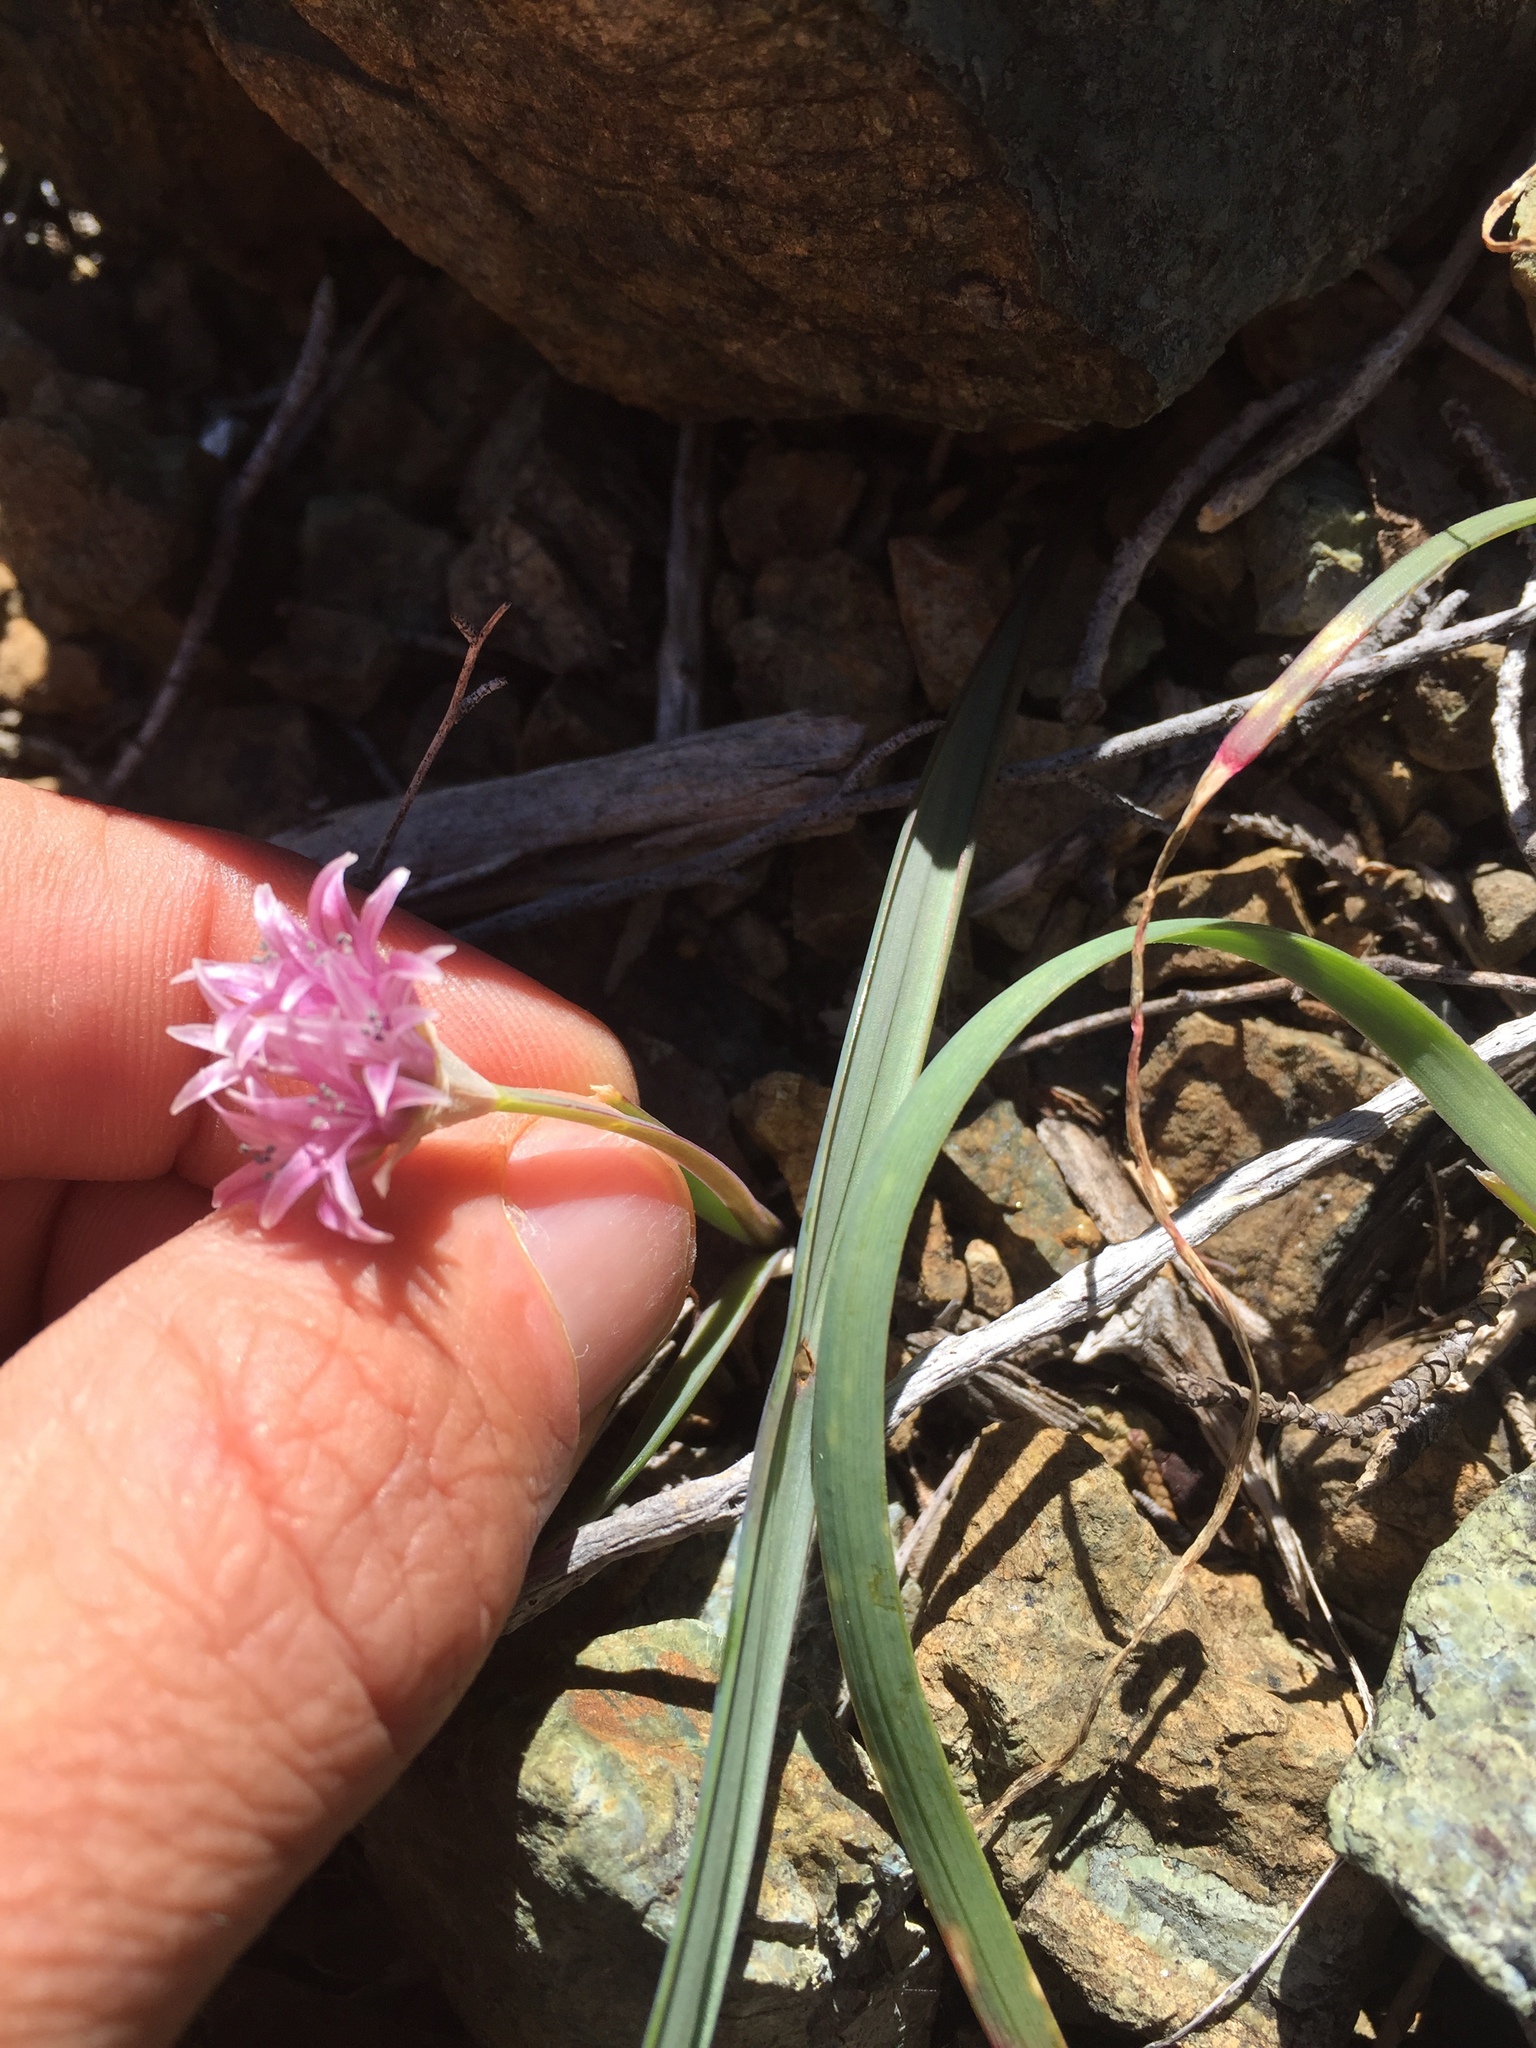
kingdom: Plantae
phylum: Tracheophyta
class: Liliopsida
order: Asparagales
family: Amaryllidaceae
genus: Allium
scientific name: Allium falcifolium
